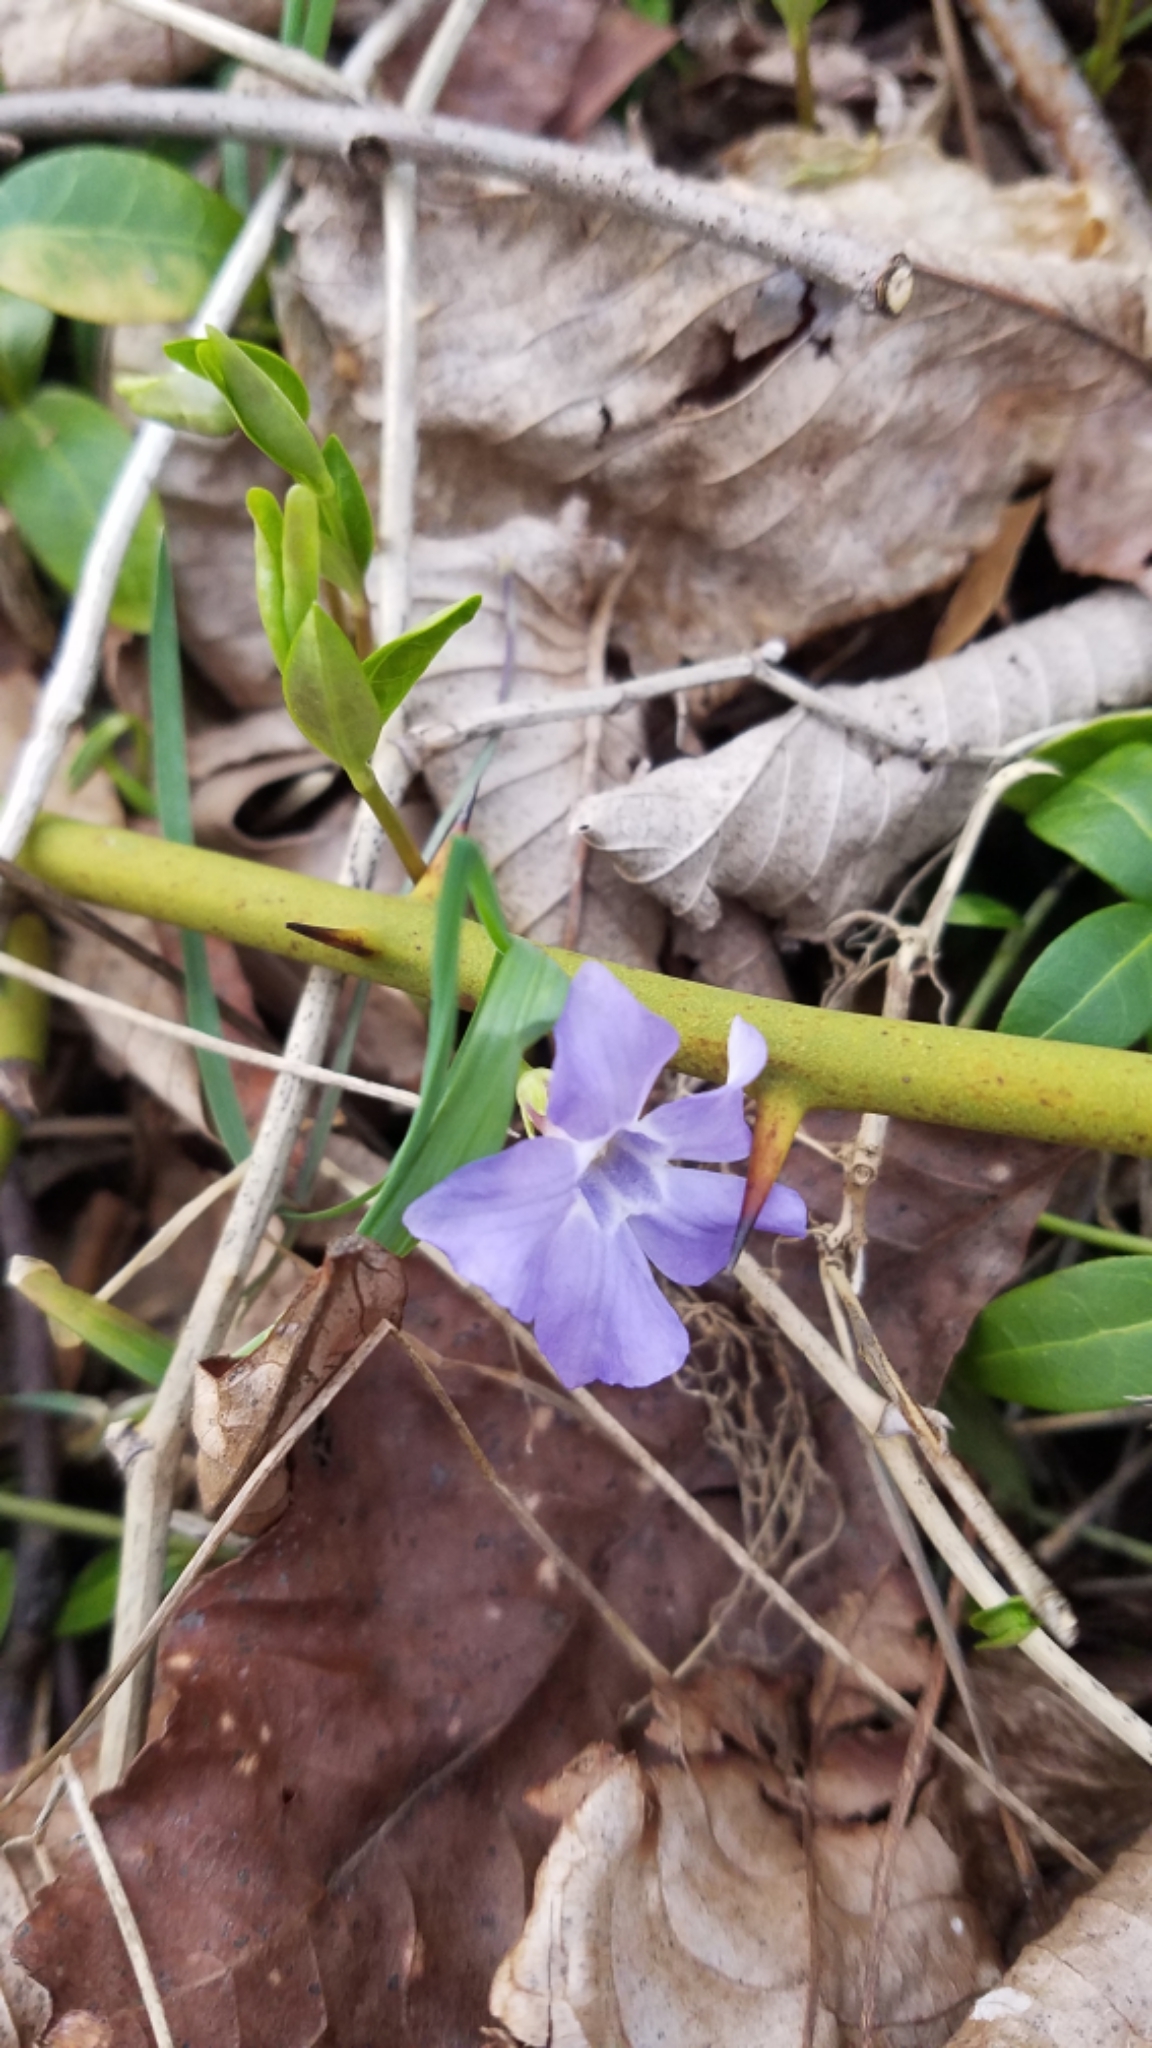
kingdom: Plantae
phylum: Tracheophyta
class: Magnoliopsida
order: Gentianales
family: Apocynaceae
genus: Vinca
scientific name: Vinca minor
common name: Lesser periwinkle
